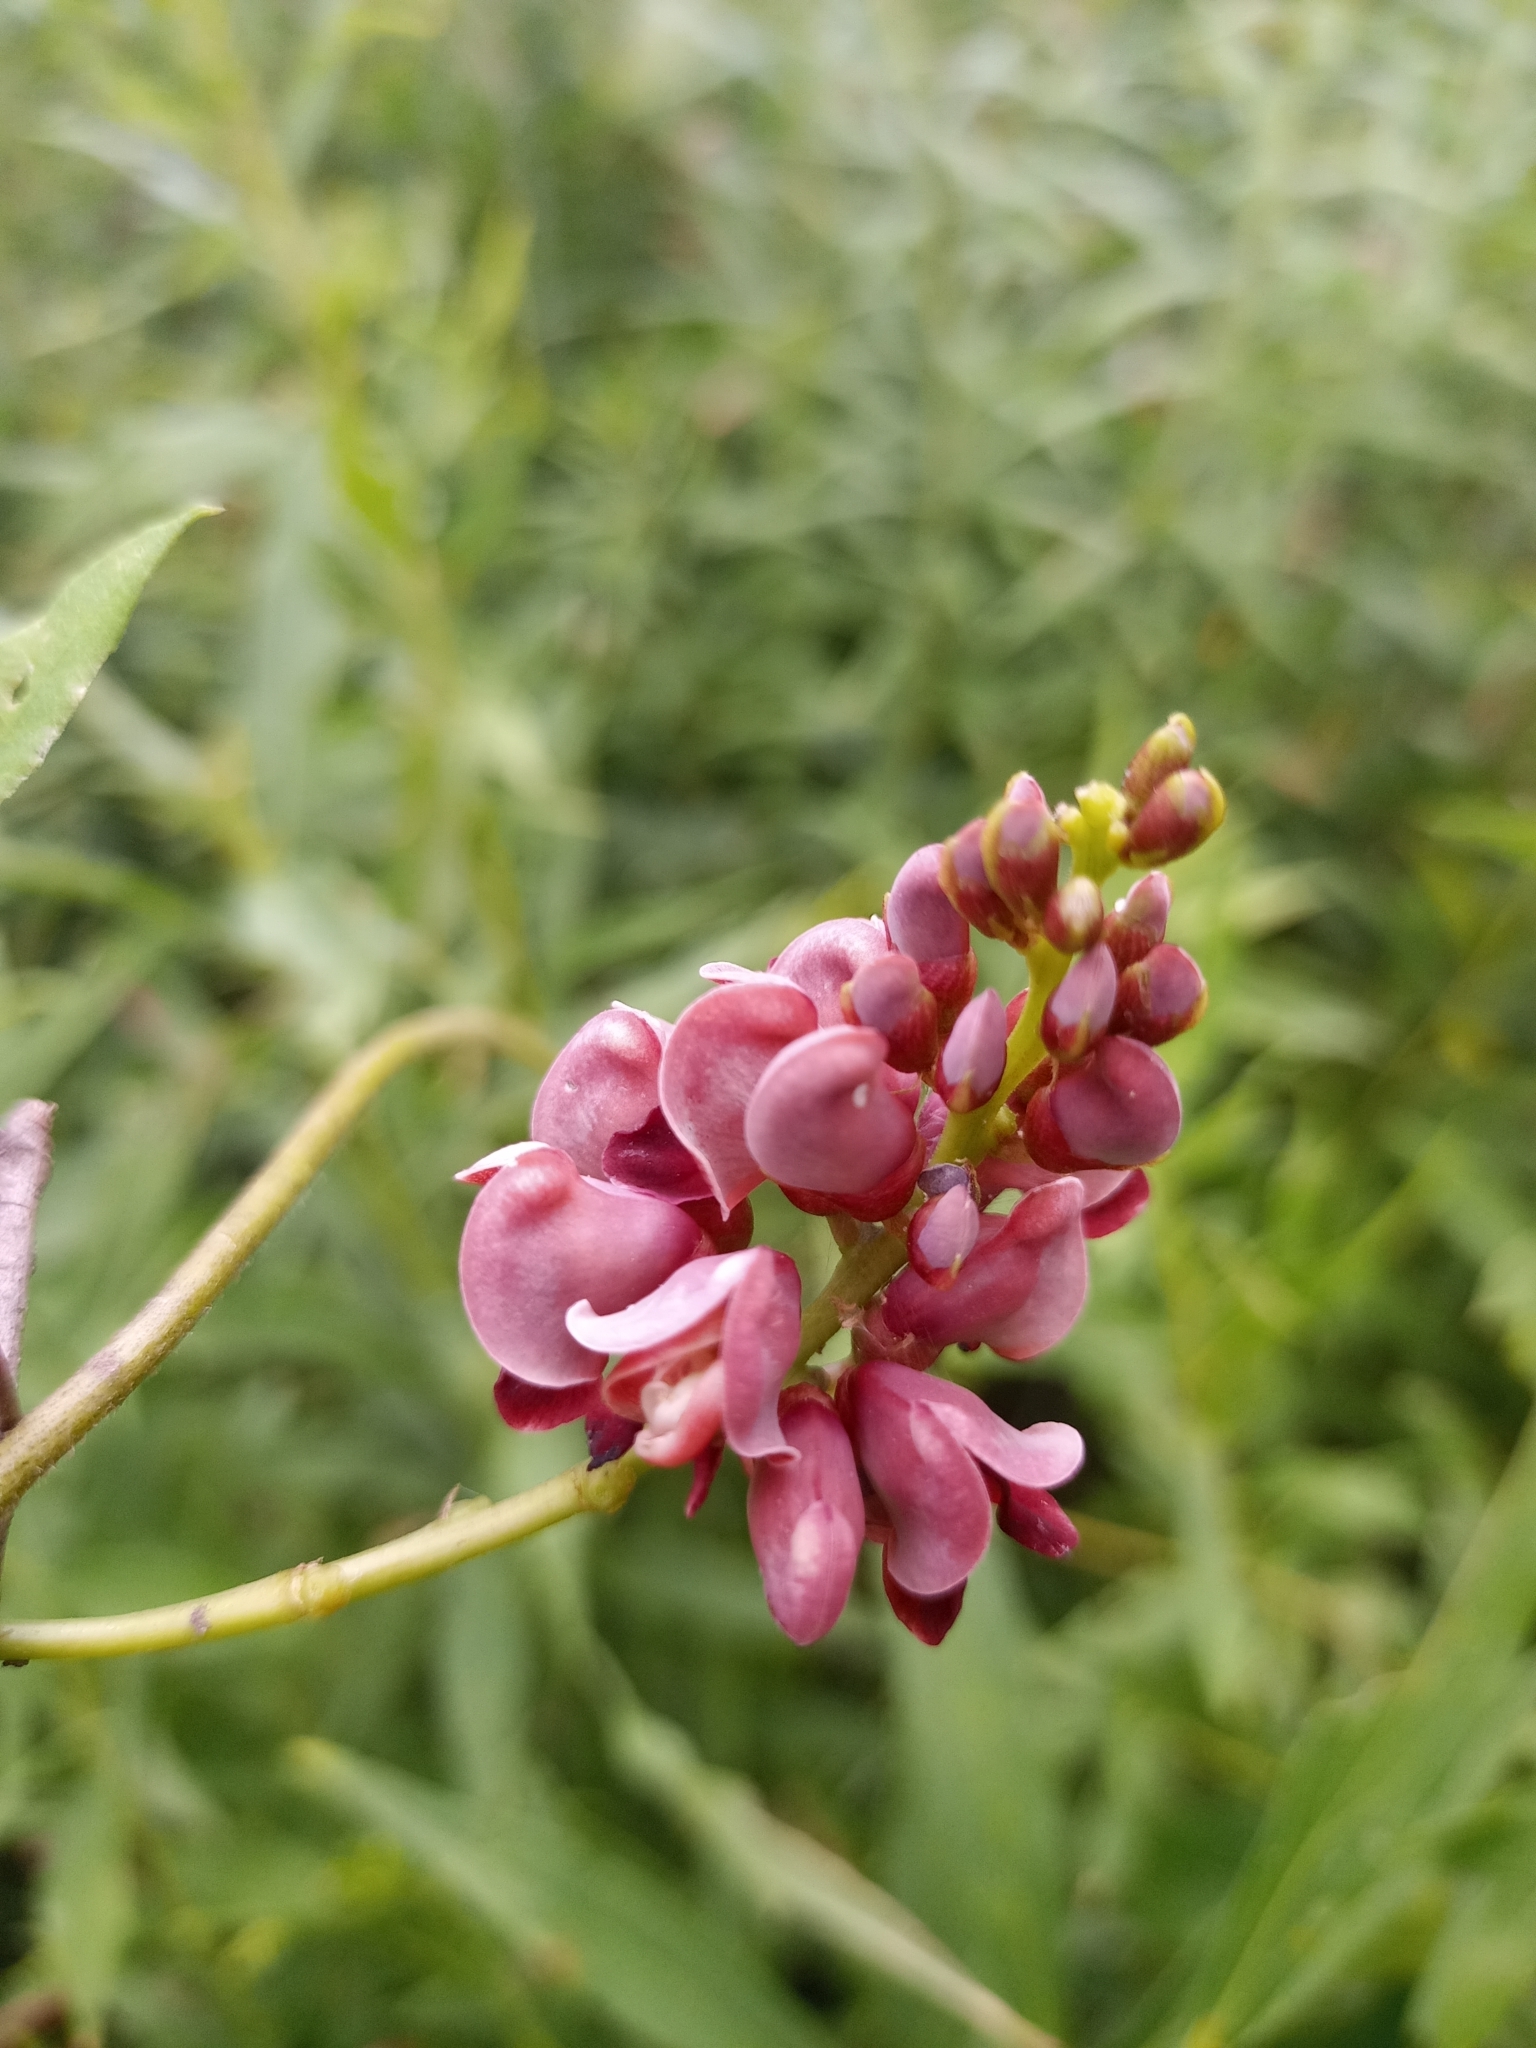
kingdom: Plantae
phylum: Tracheophyta
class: Magnoliopsida
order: Fabales
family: Fabaceae
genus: Apios
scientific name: Apios americana
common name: American potato-bean
